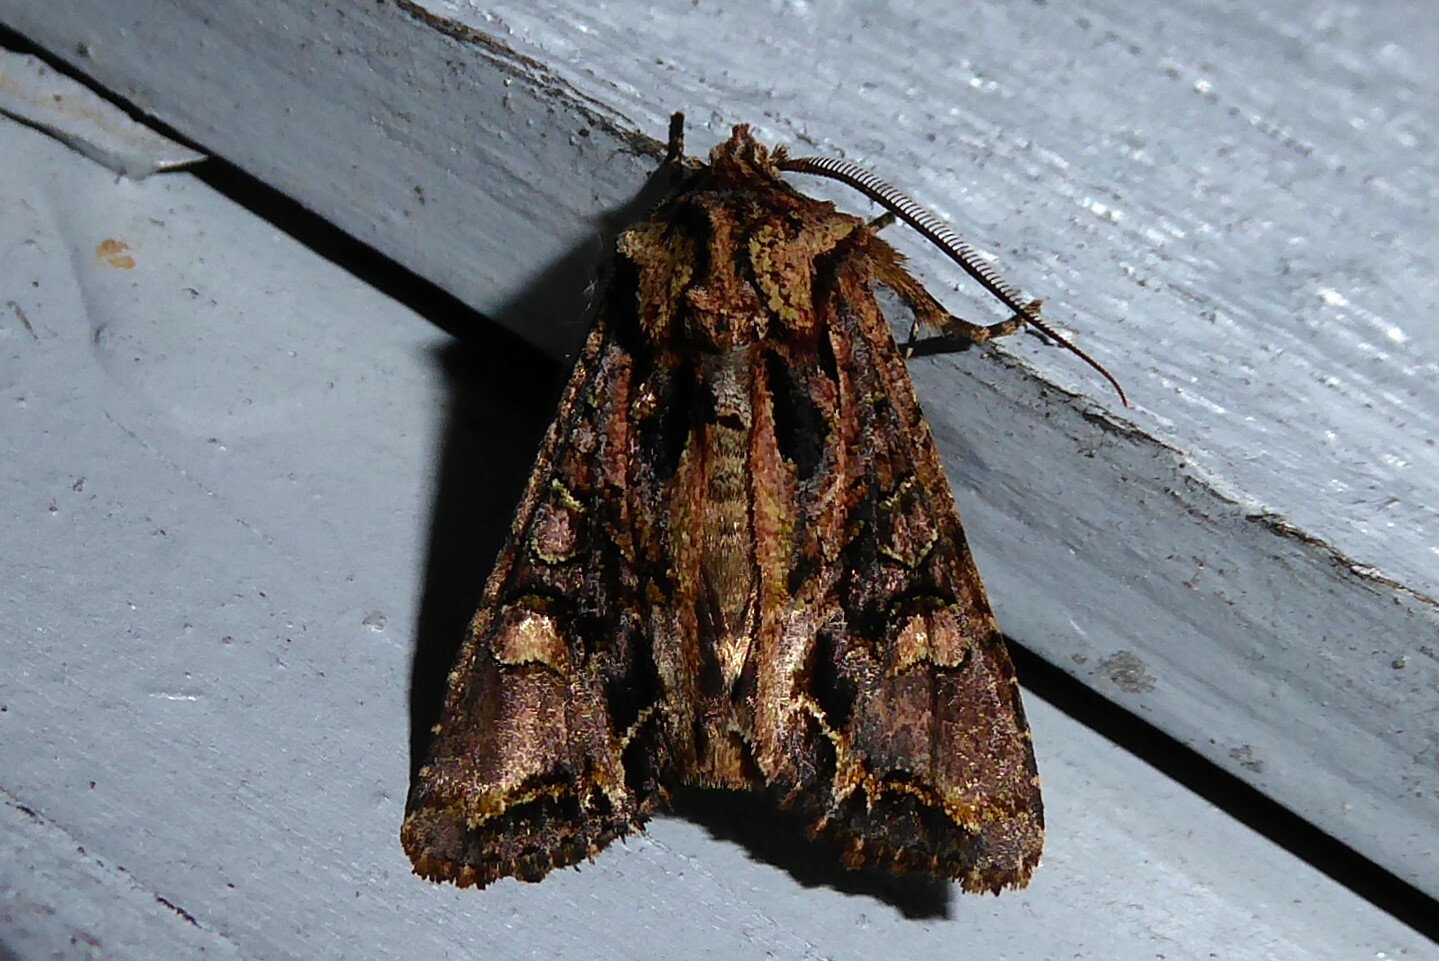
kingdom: Animalia
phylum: Arthropoda
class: Insecta
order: Lepidoptera
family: Noctuidae
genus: Ichneutica
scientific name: Ichneutica insignis
